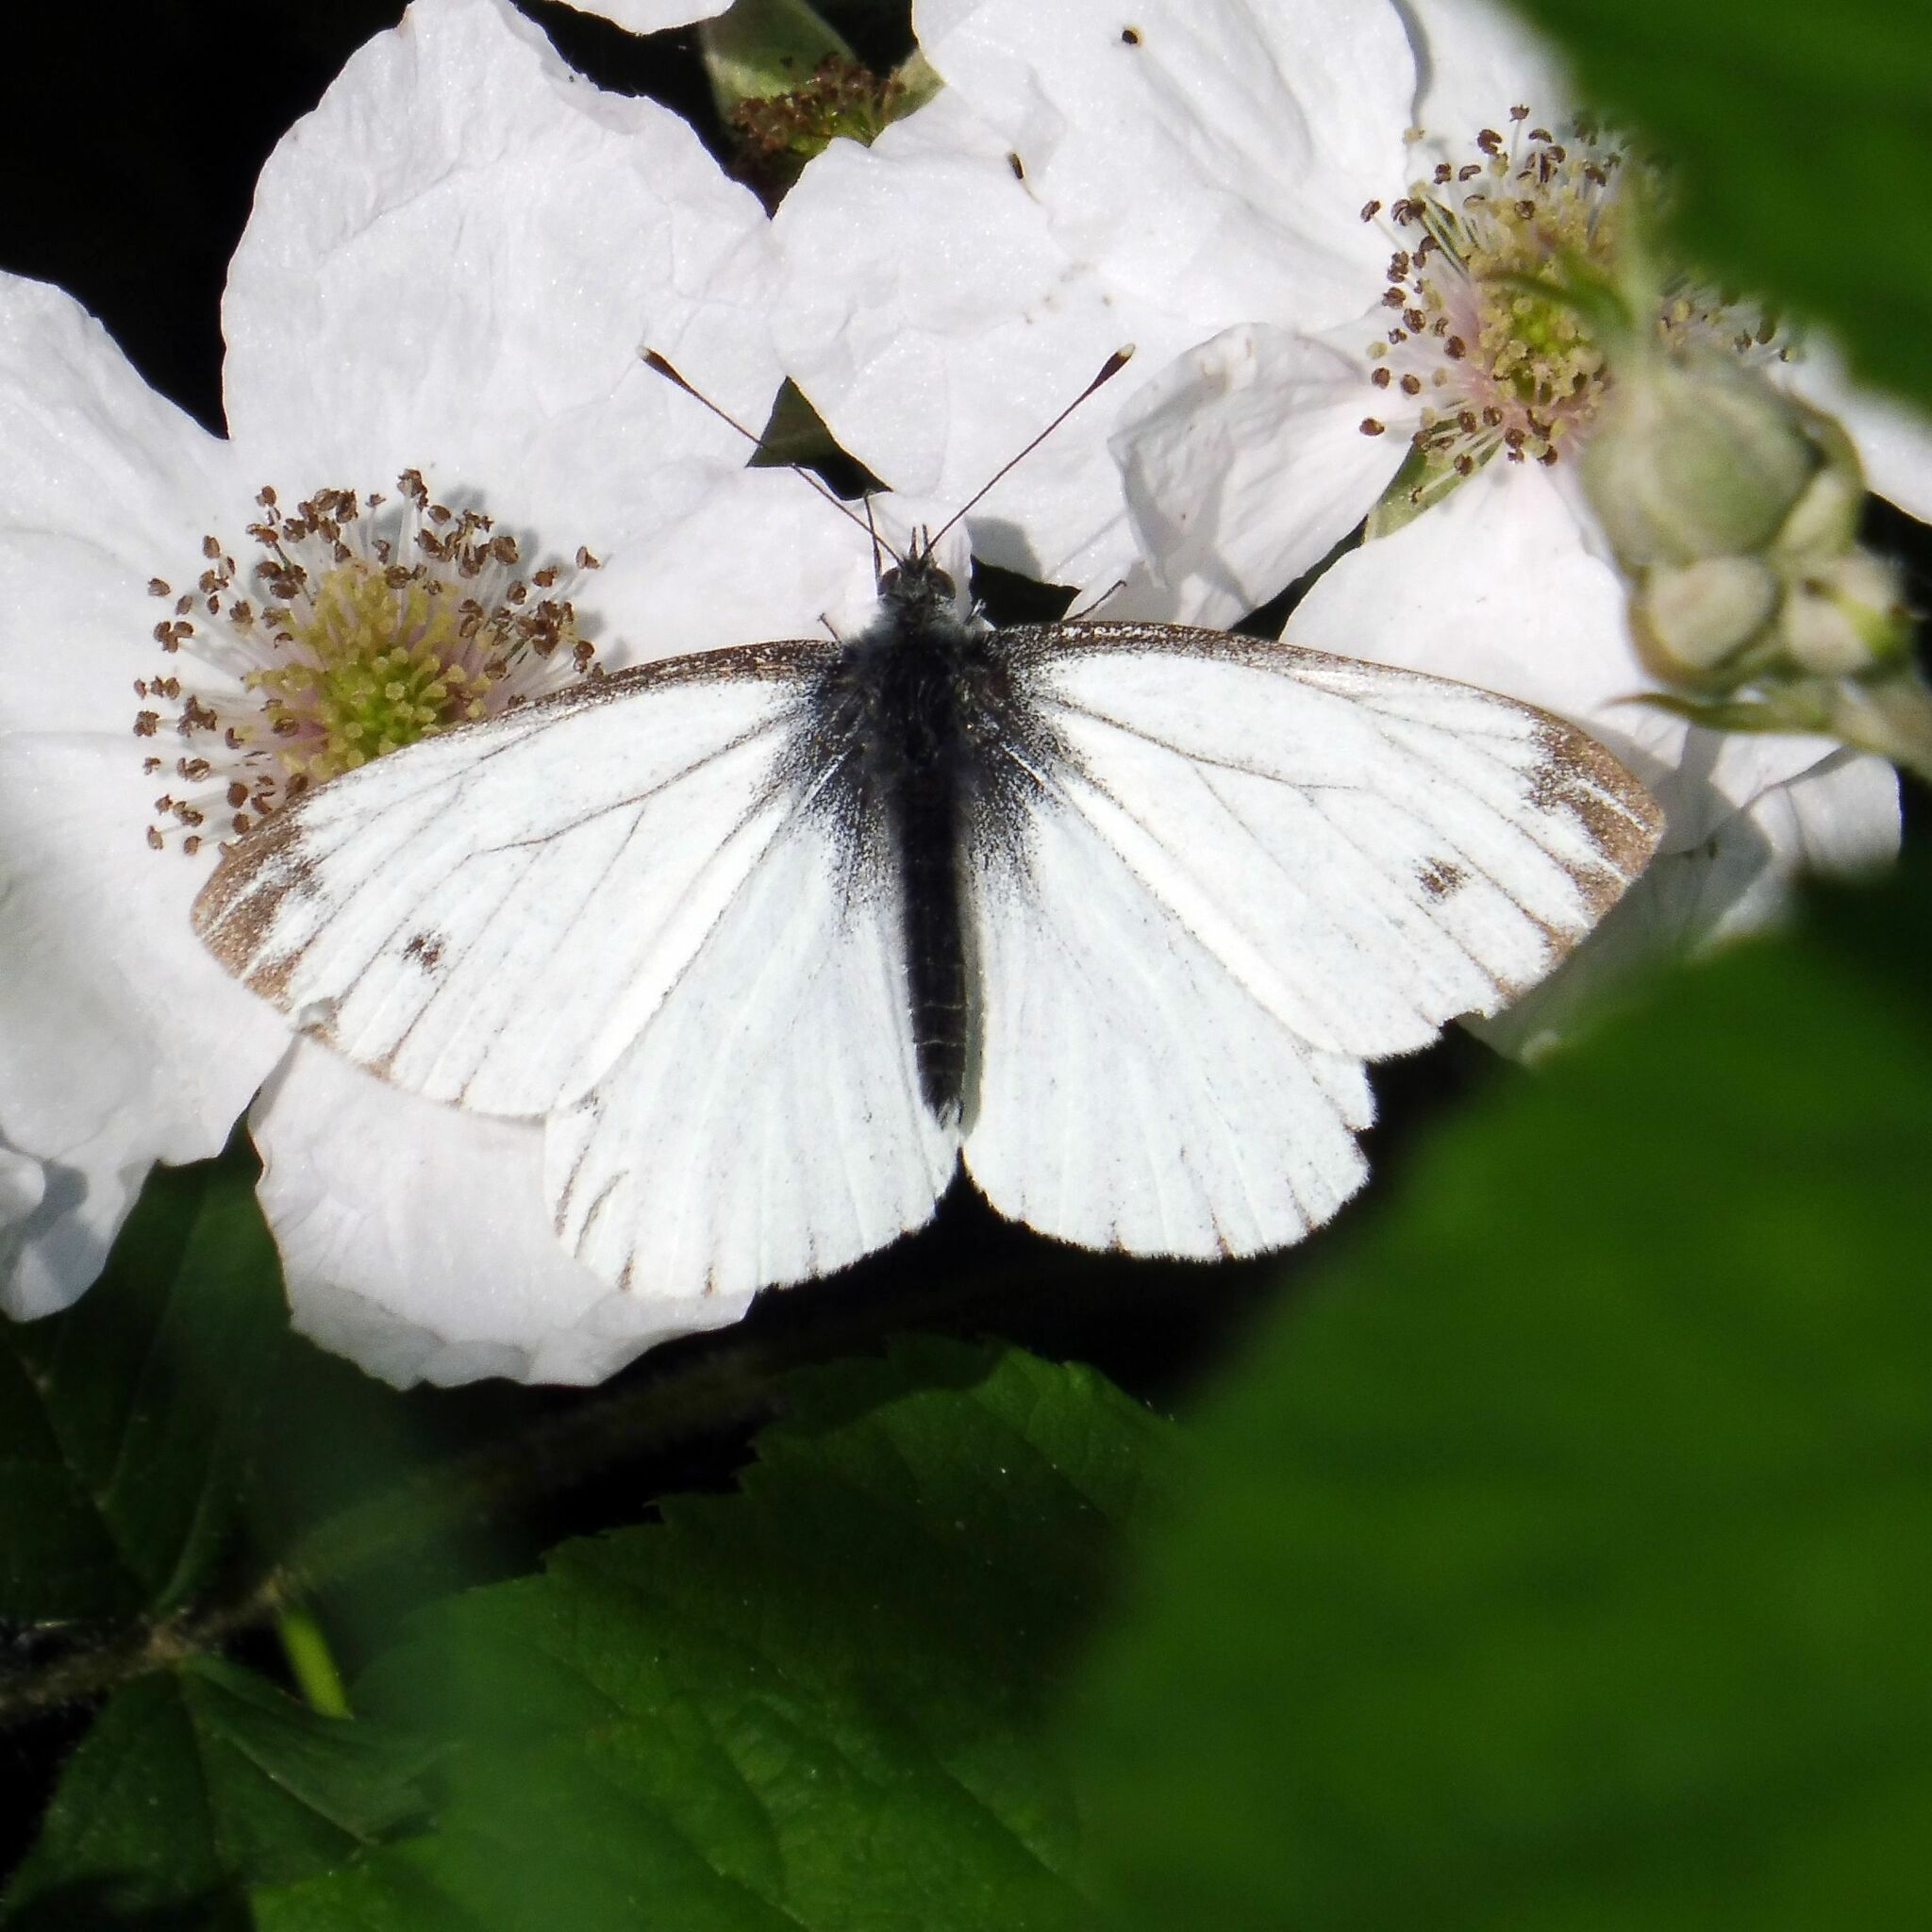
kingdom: Animalia
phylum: Arthropoda
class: Insecta
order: Lepidoptera
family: Pieridae
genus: Pieris
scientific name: Pieris napi
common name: Green-veined white
